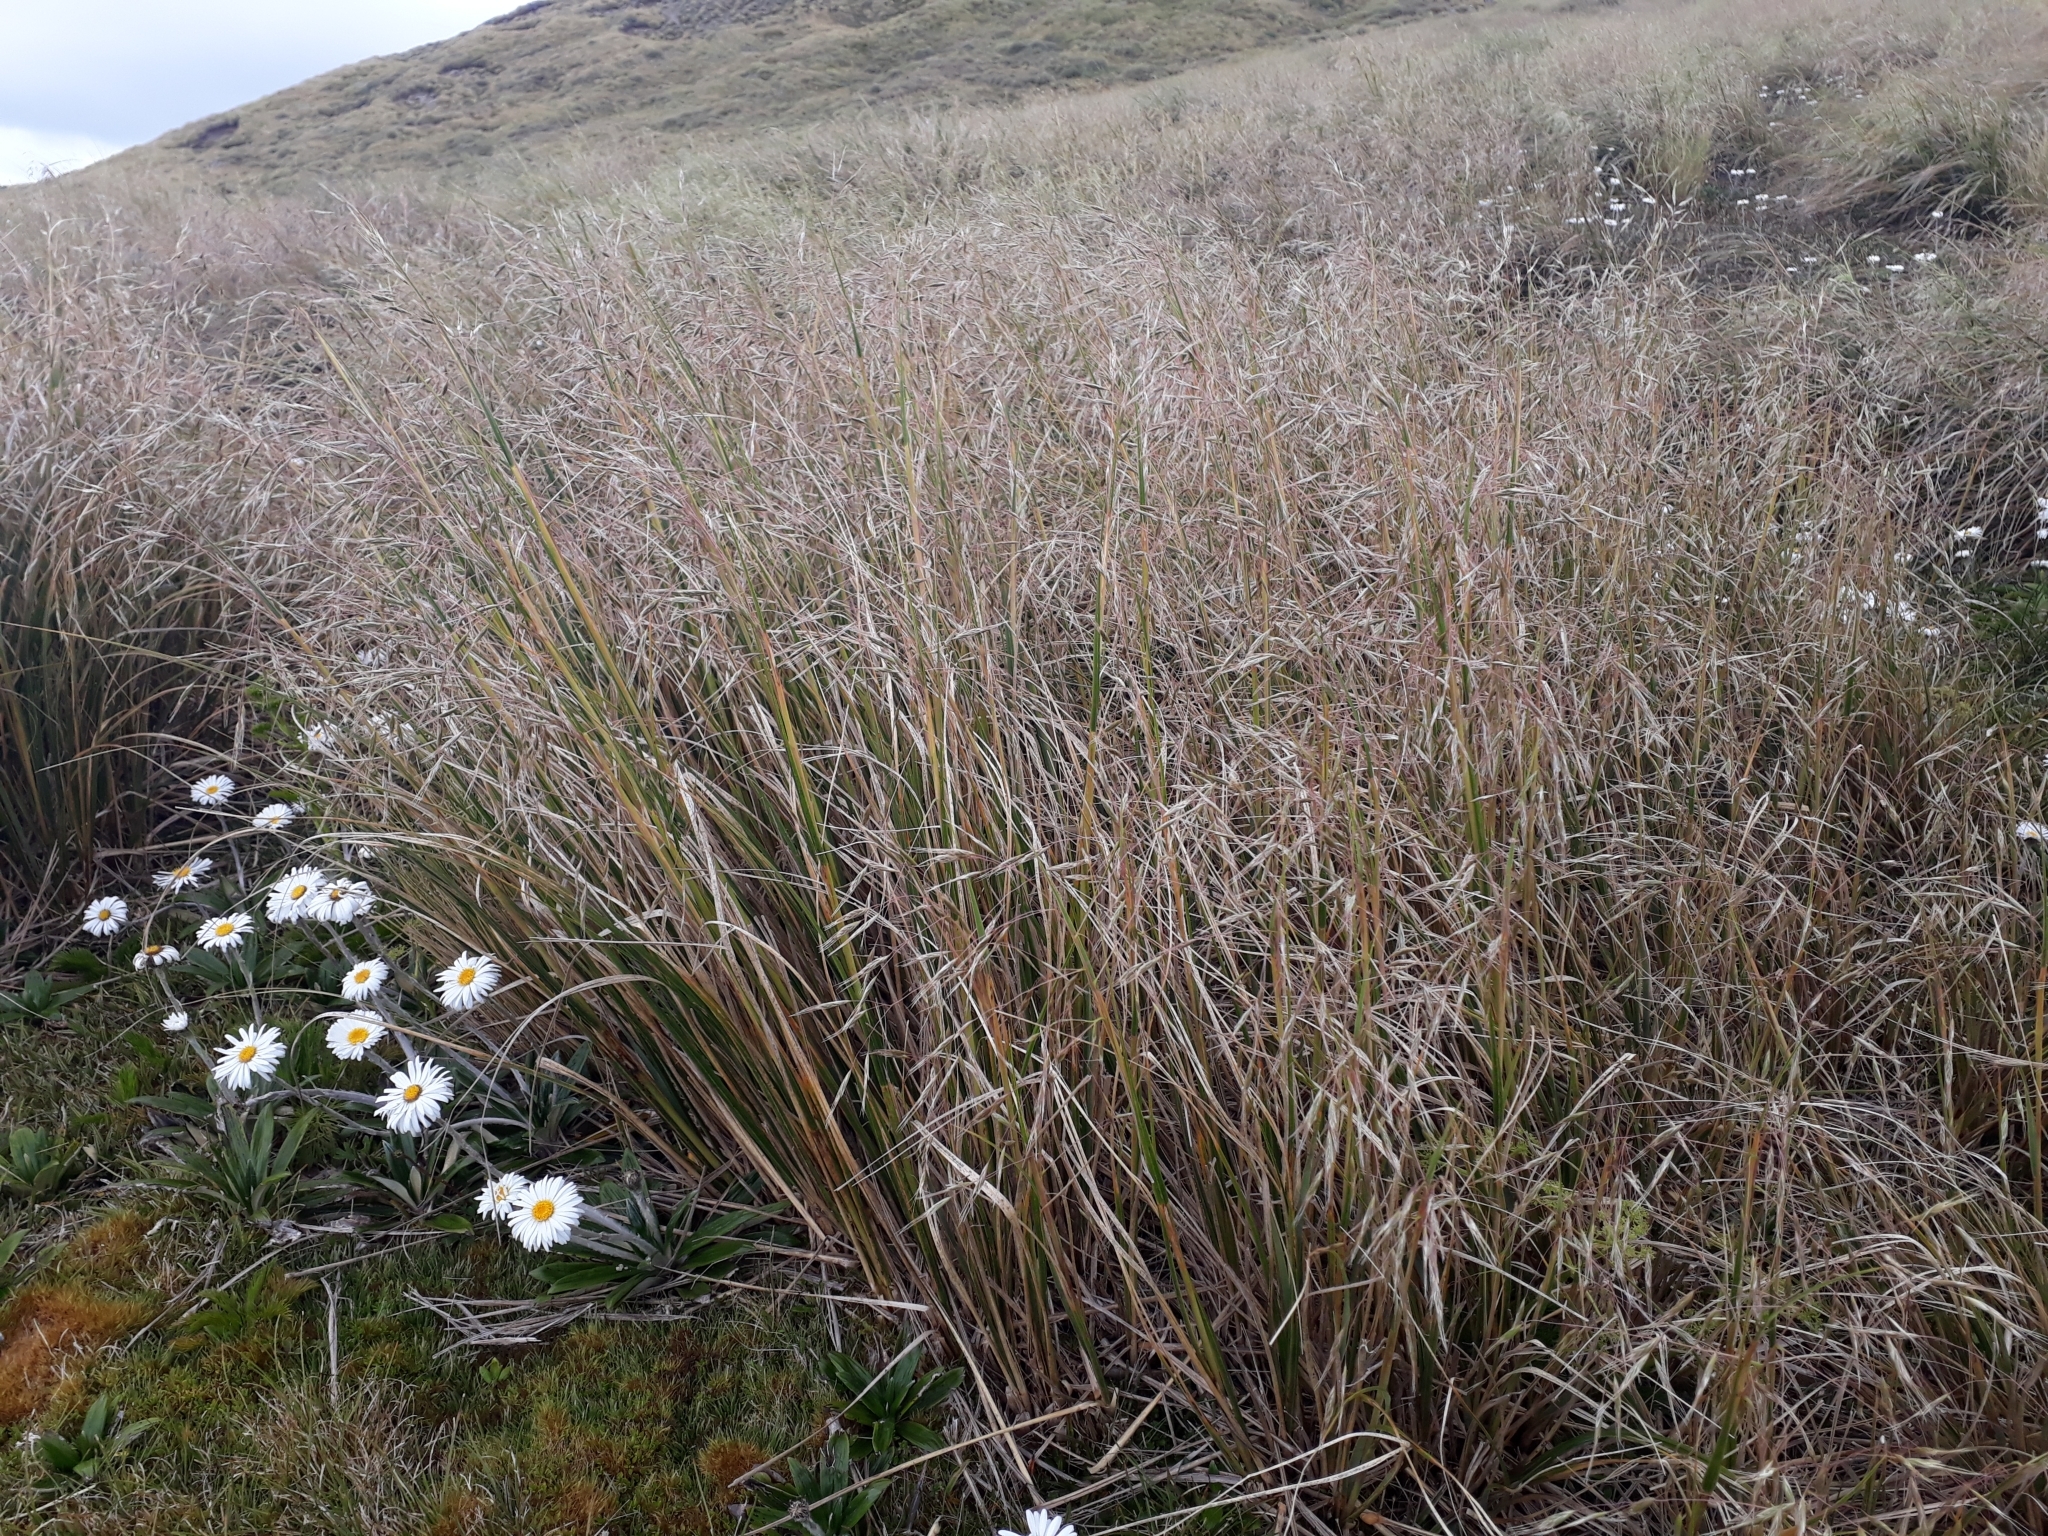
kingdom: Plantae
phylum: Tracheophyta
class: Liliopsida
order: Poales
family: Poaceae
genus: Chionochloa
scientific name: Chionochloa pallens
